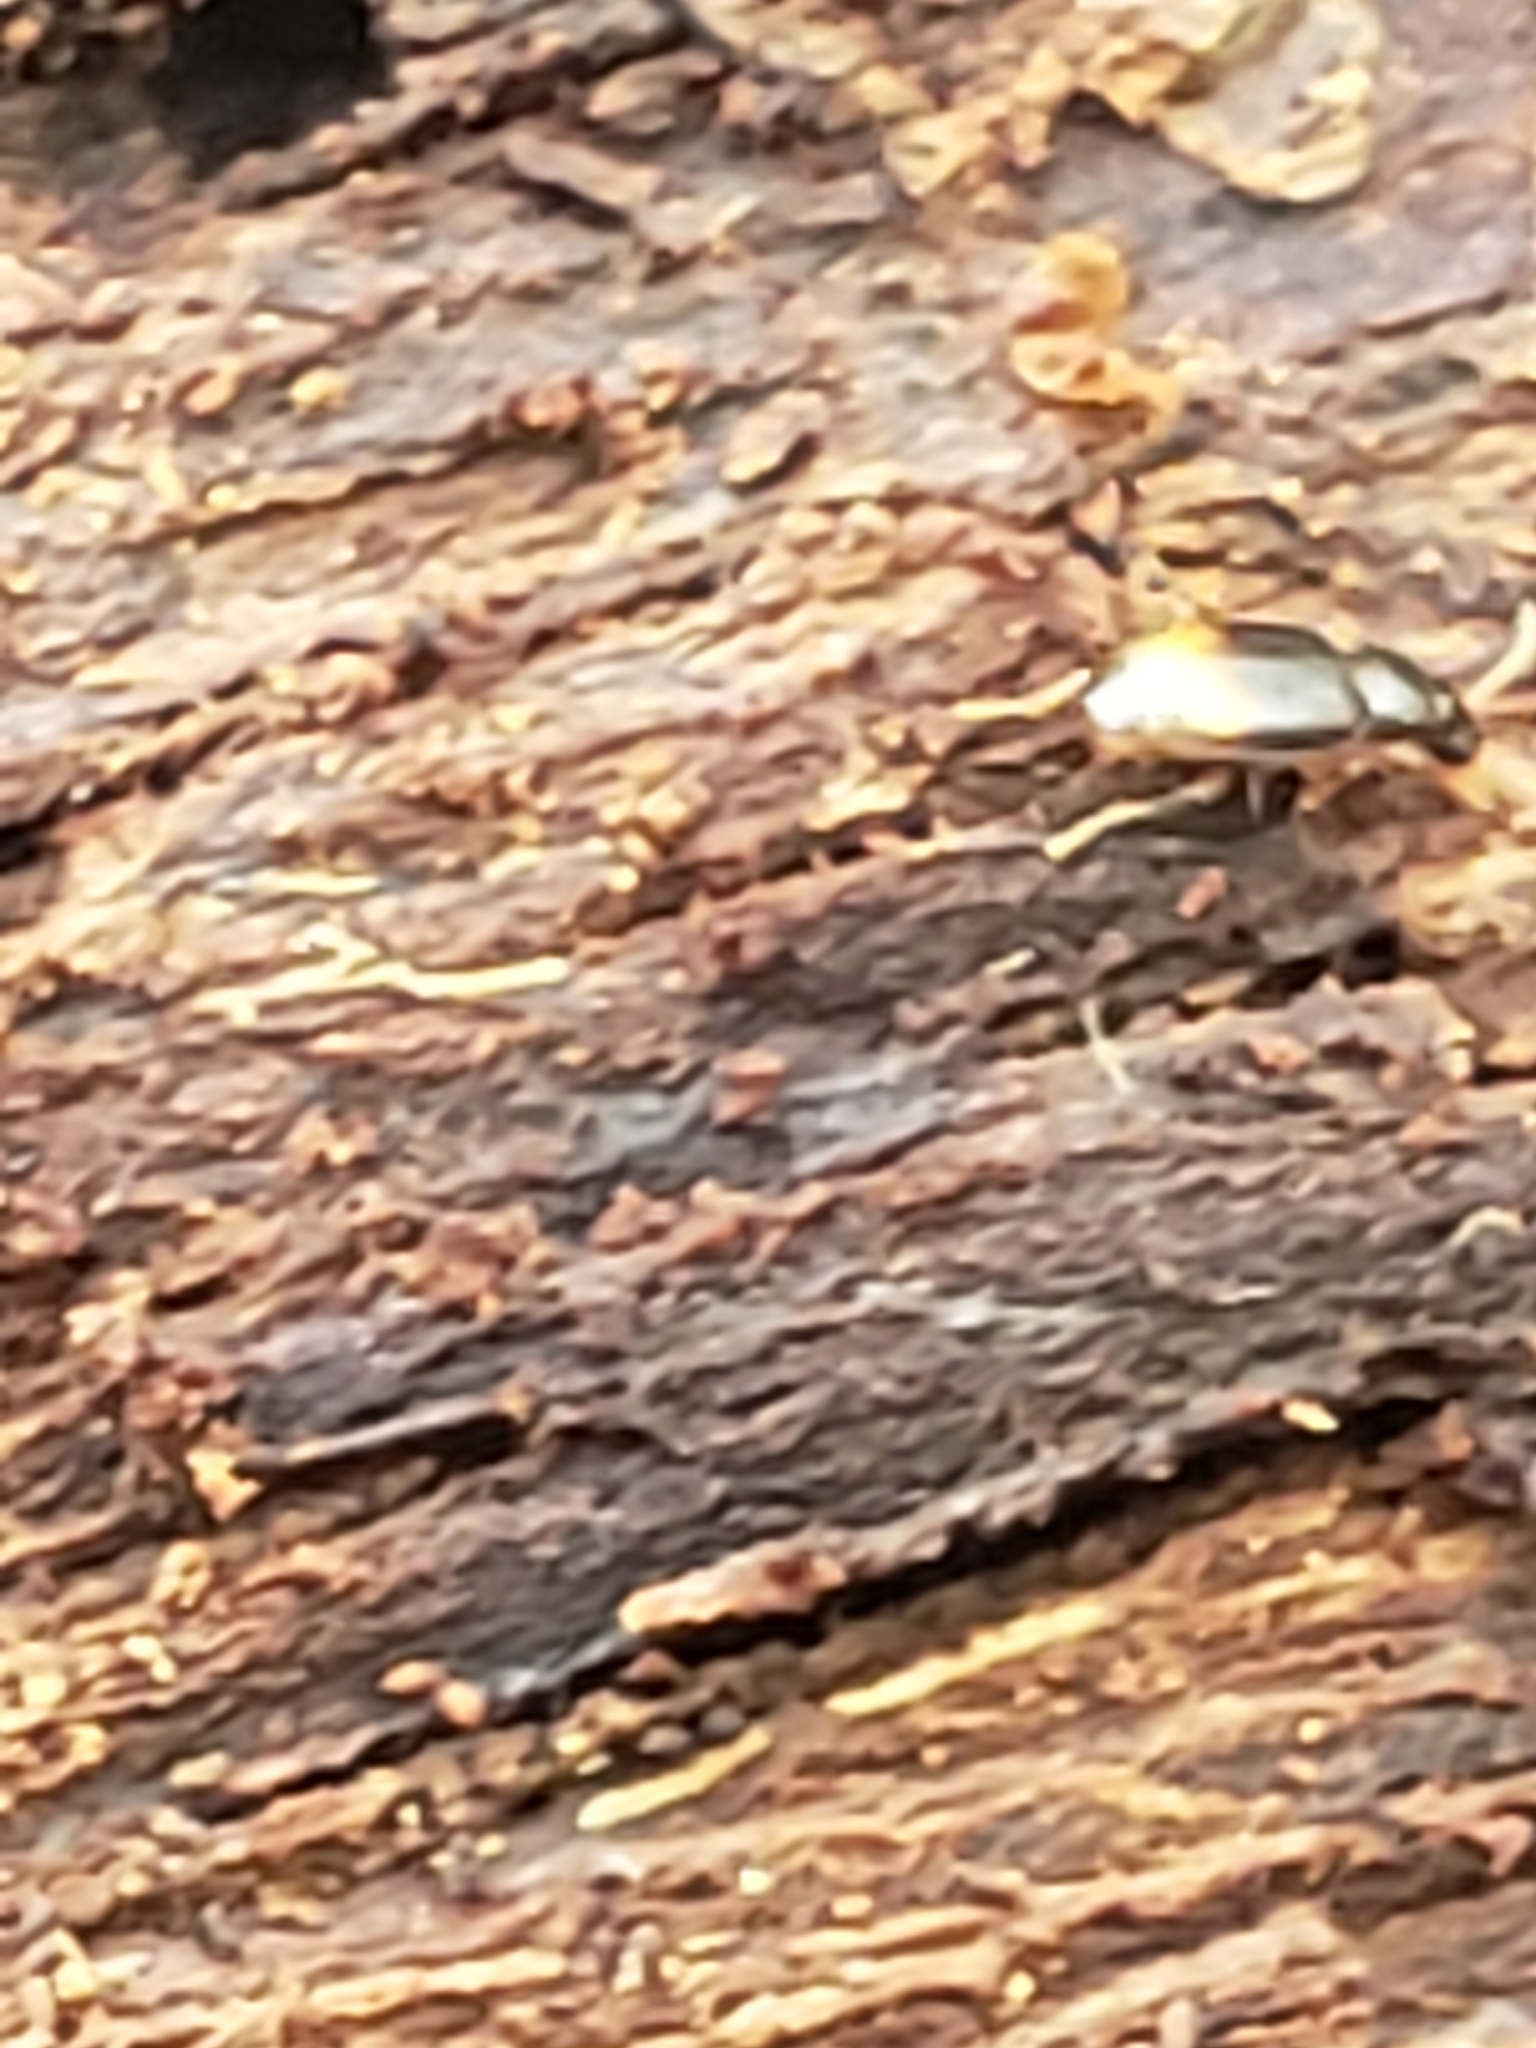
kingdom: Animalia
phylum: Arthropoda
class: Insecta
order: Coleoptera
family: Carabidae
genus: Mioptachys
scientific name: Mioptachys flavicauda
